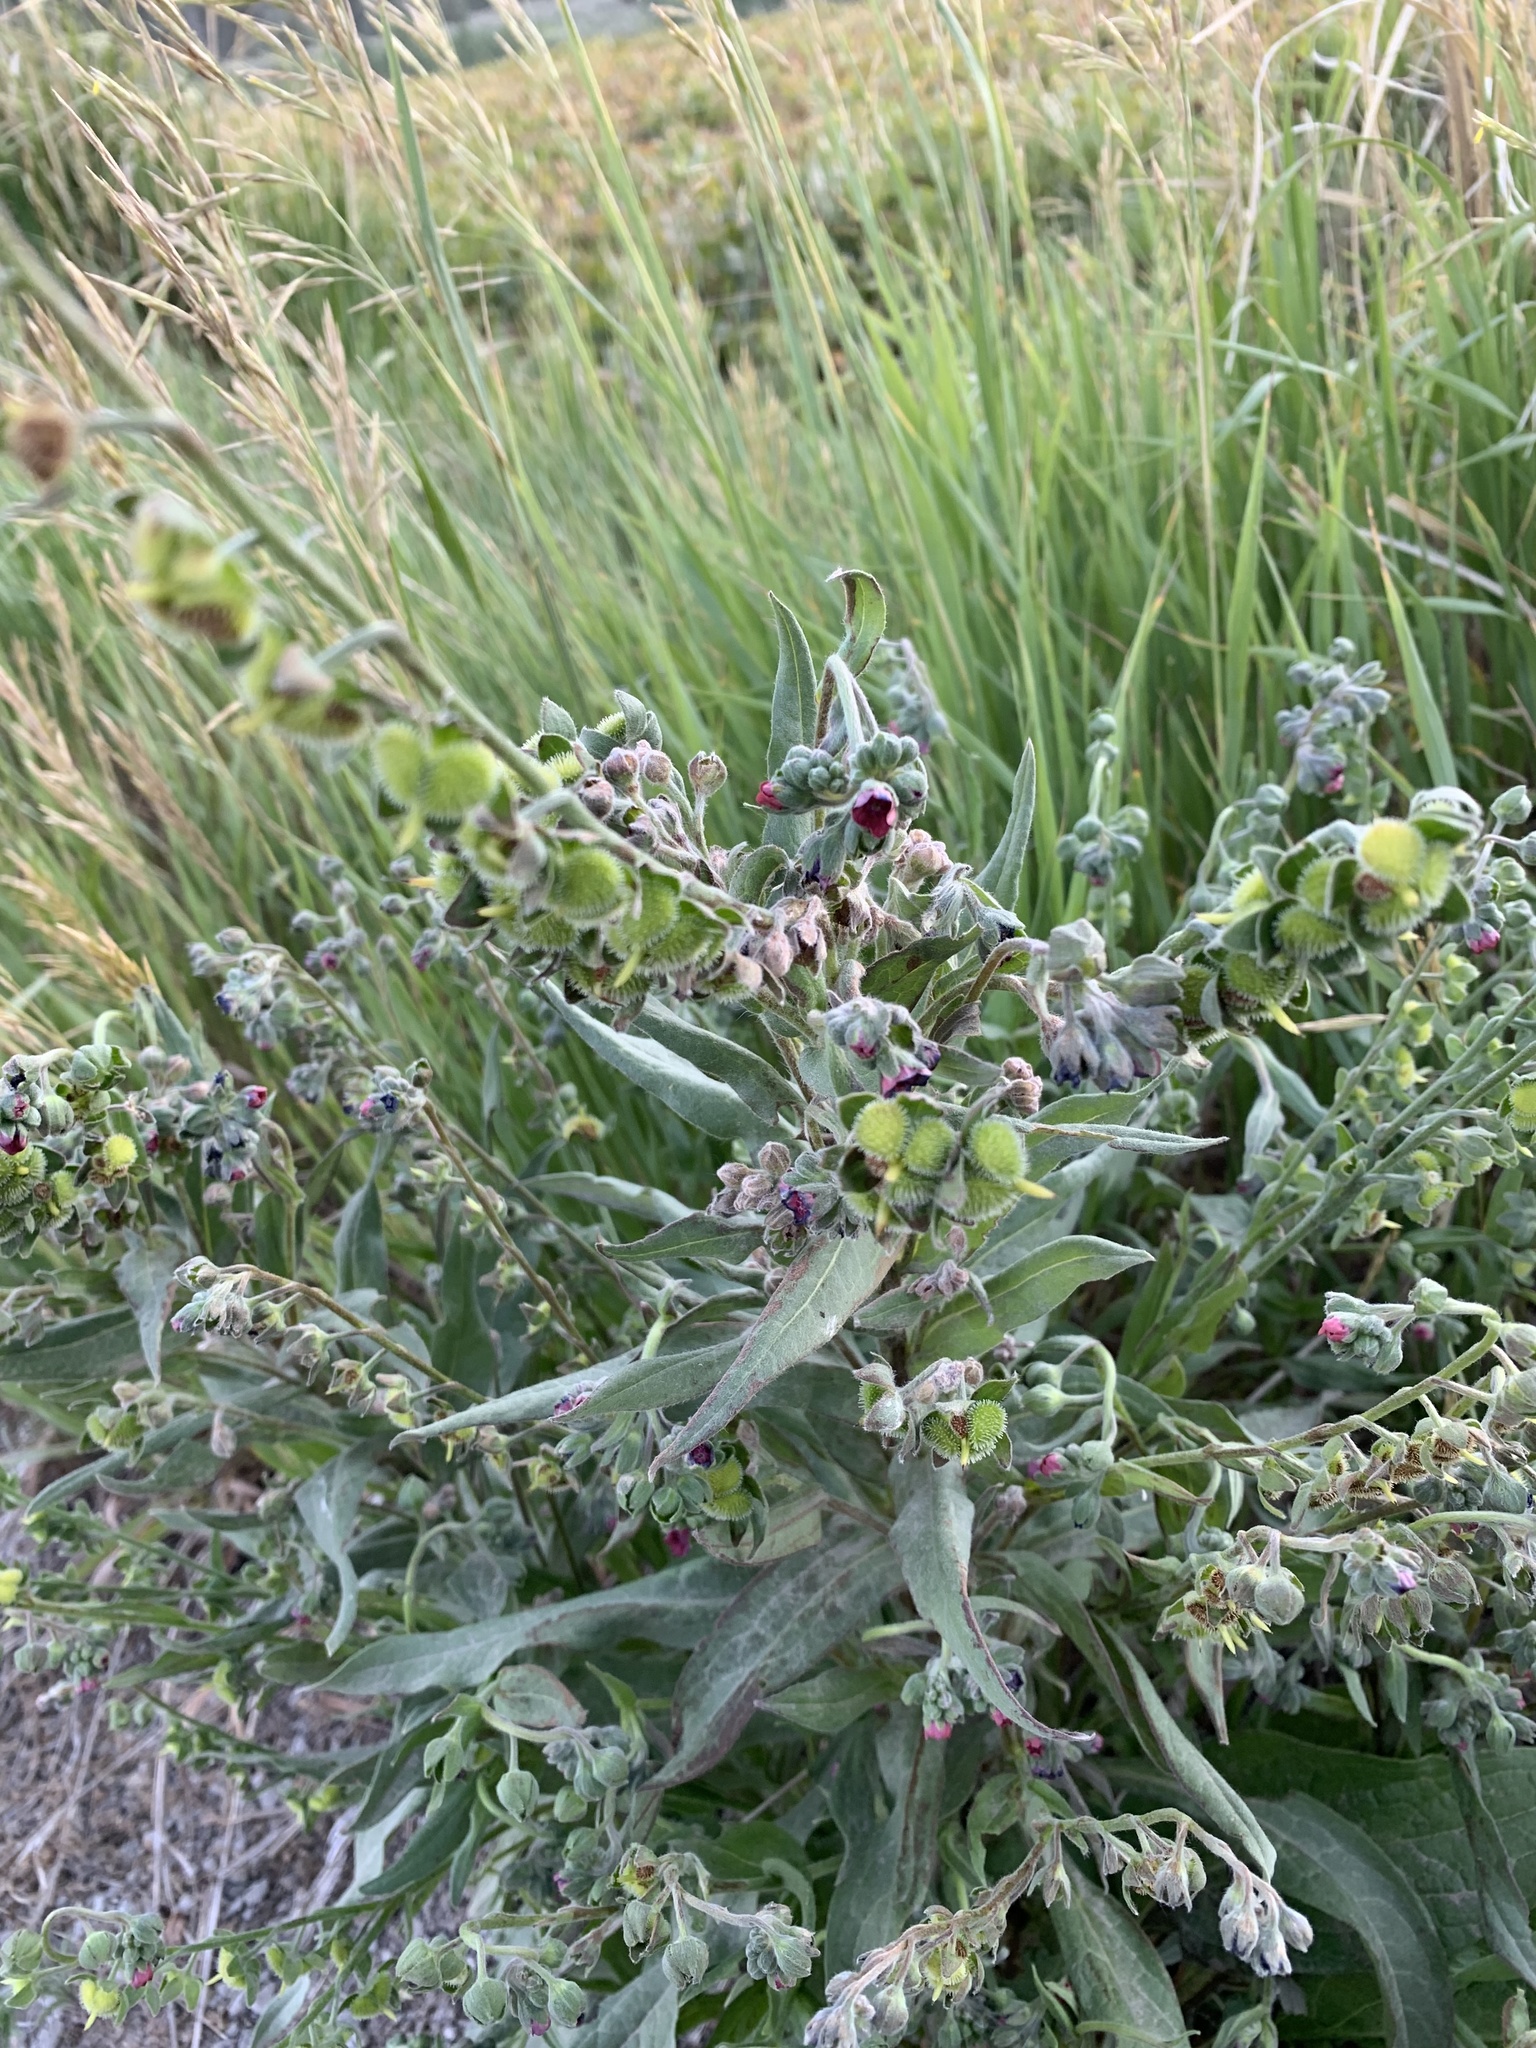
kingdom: Plantae
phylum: Tracheophyta
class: Magnoliopsida
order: Boraginales
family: Boraginaceae
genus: Cynoglossum
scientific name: Cynoglossum officinale
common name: Hound's-tongue
